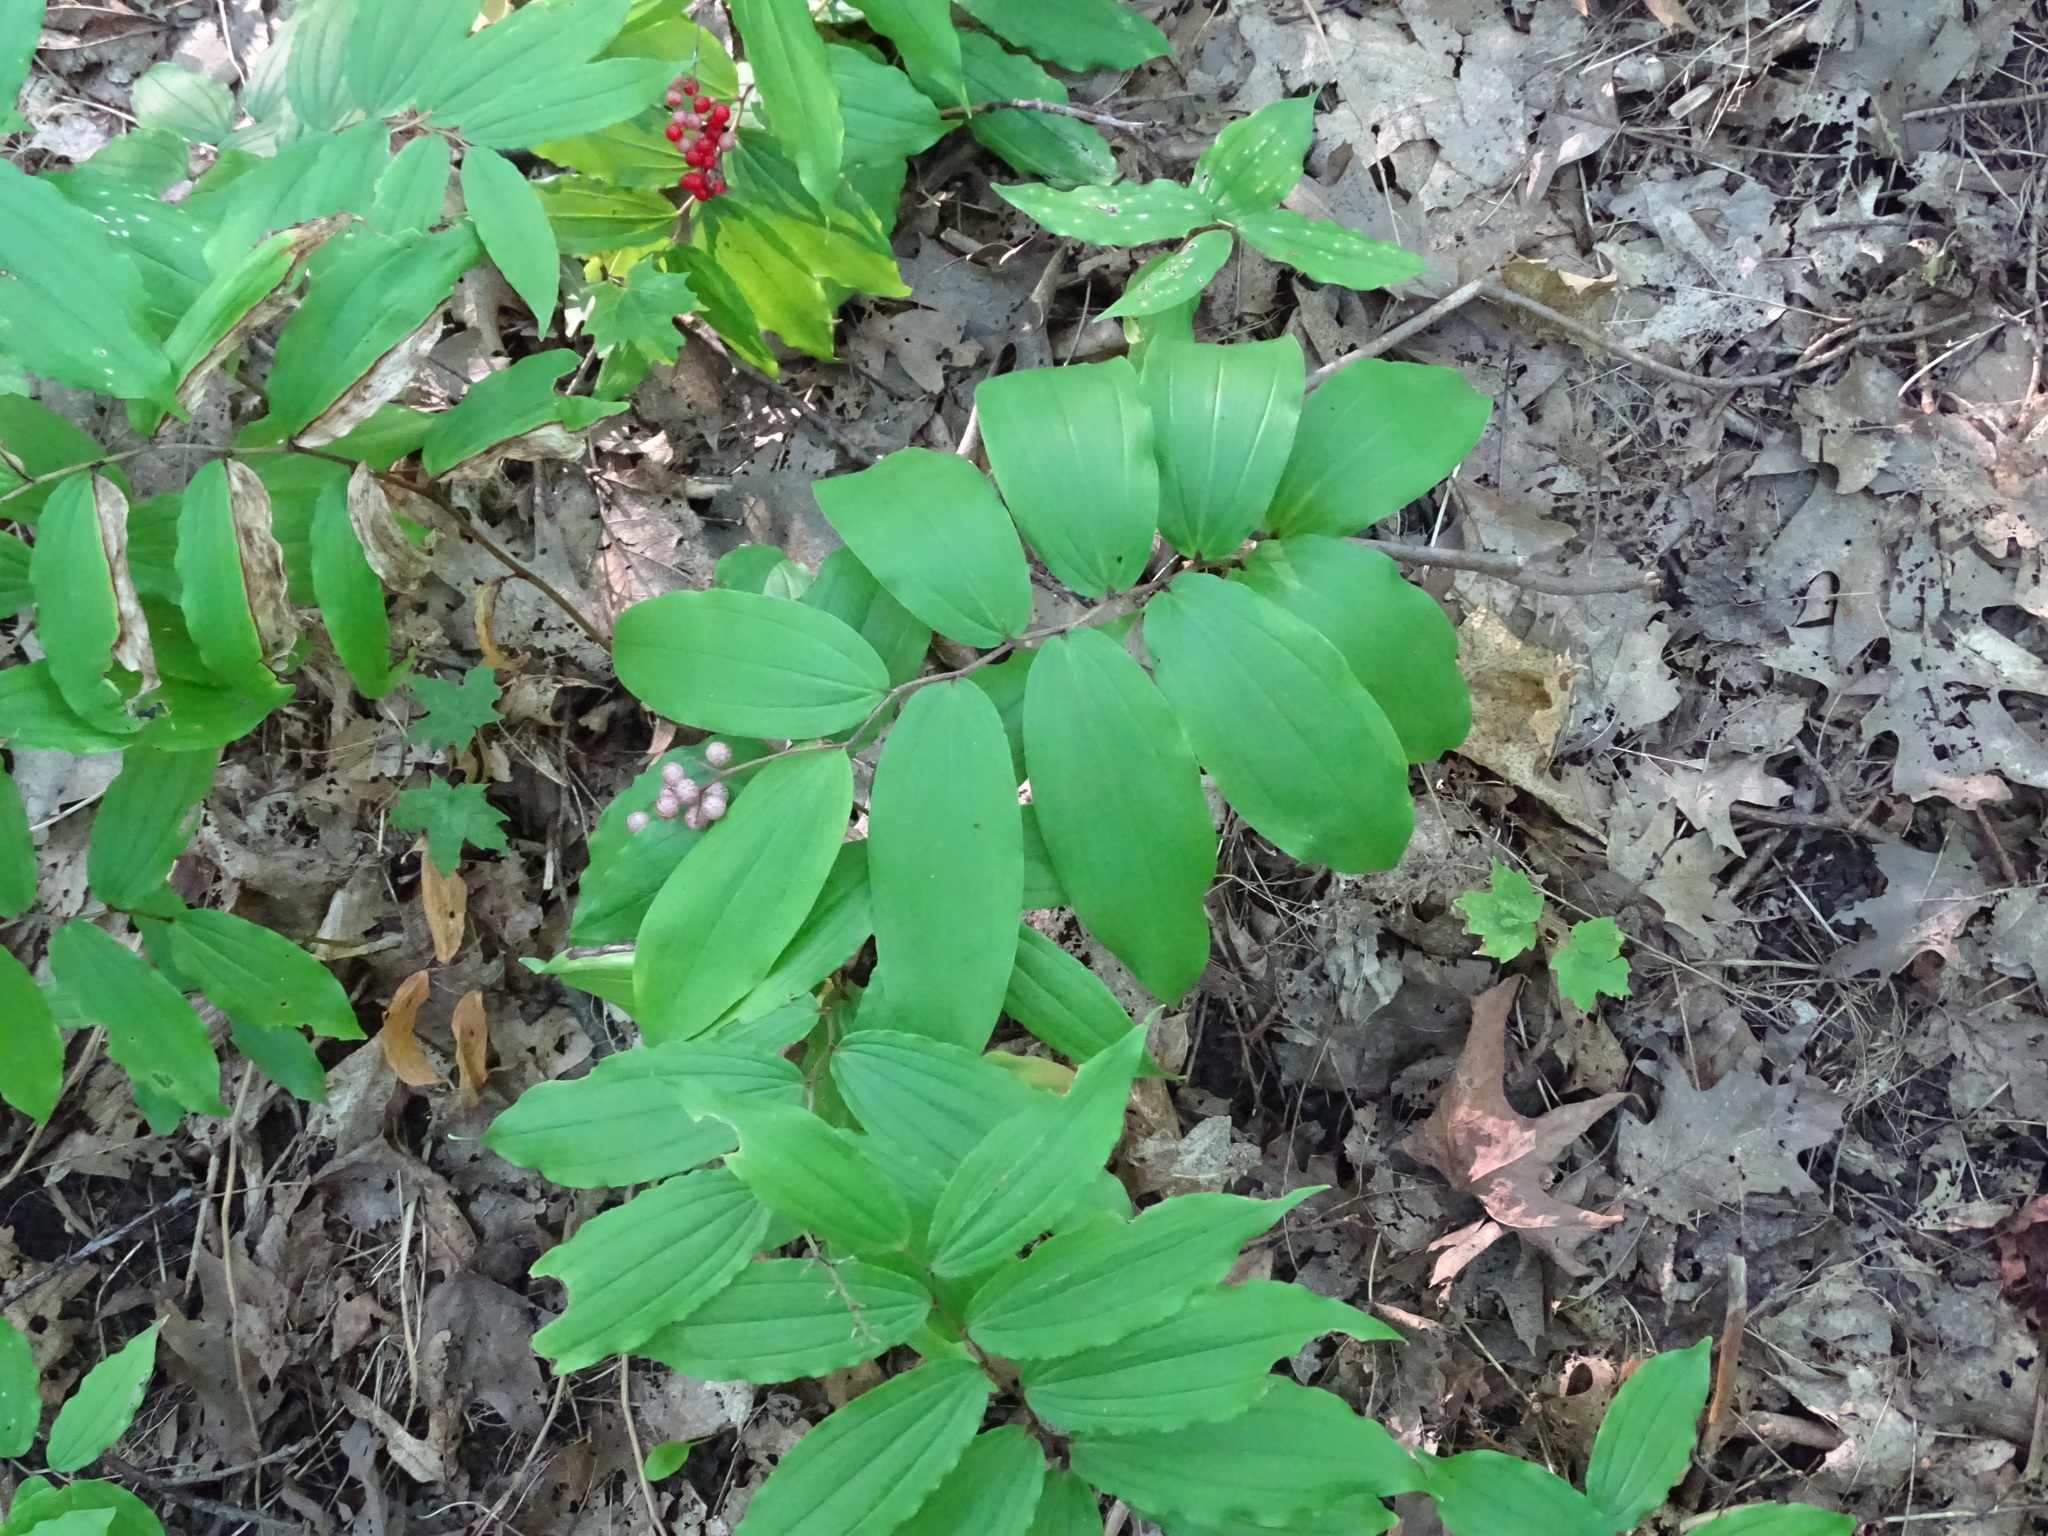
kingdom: Plantae
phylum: Tracheophyta
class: Liliopsida
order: Asparagales
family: Asparagaceae
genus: Maianthemum
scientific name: Maianthemum racemosum
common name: False spikenard
